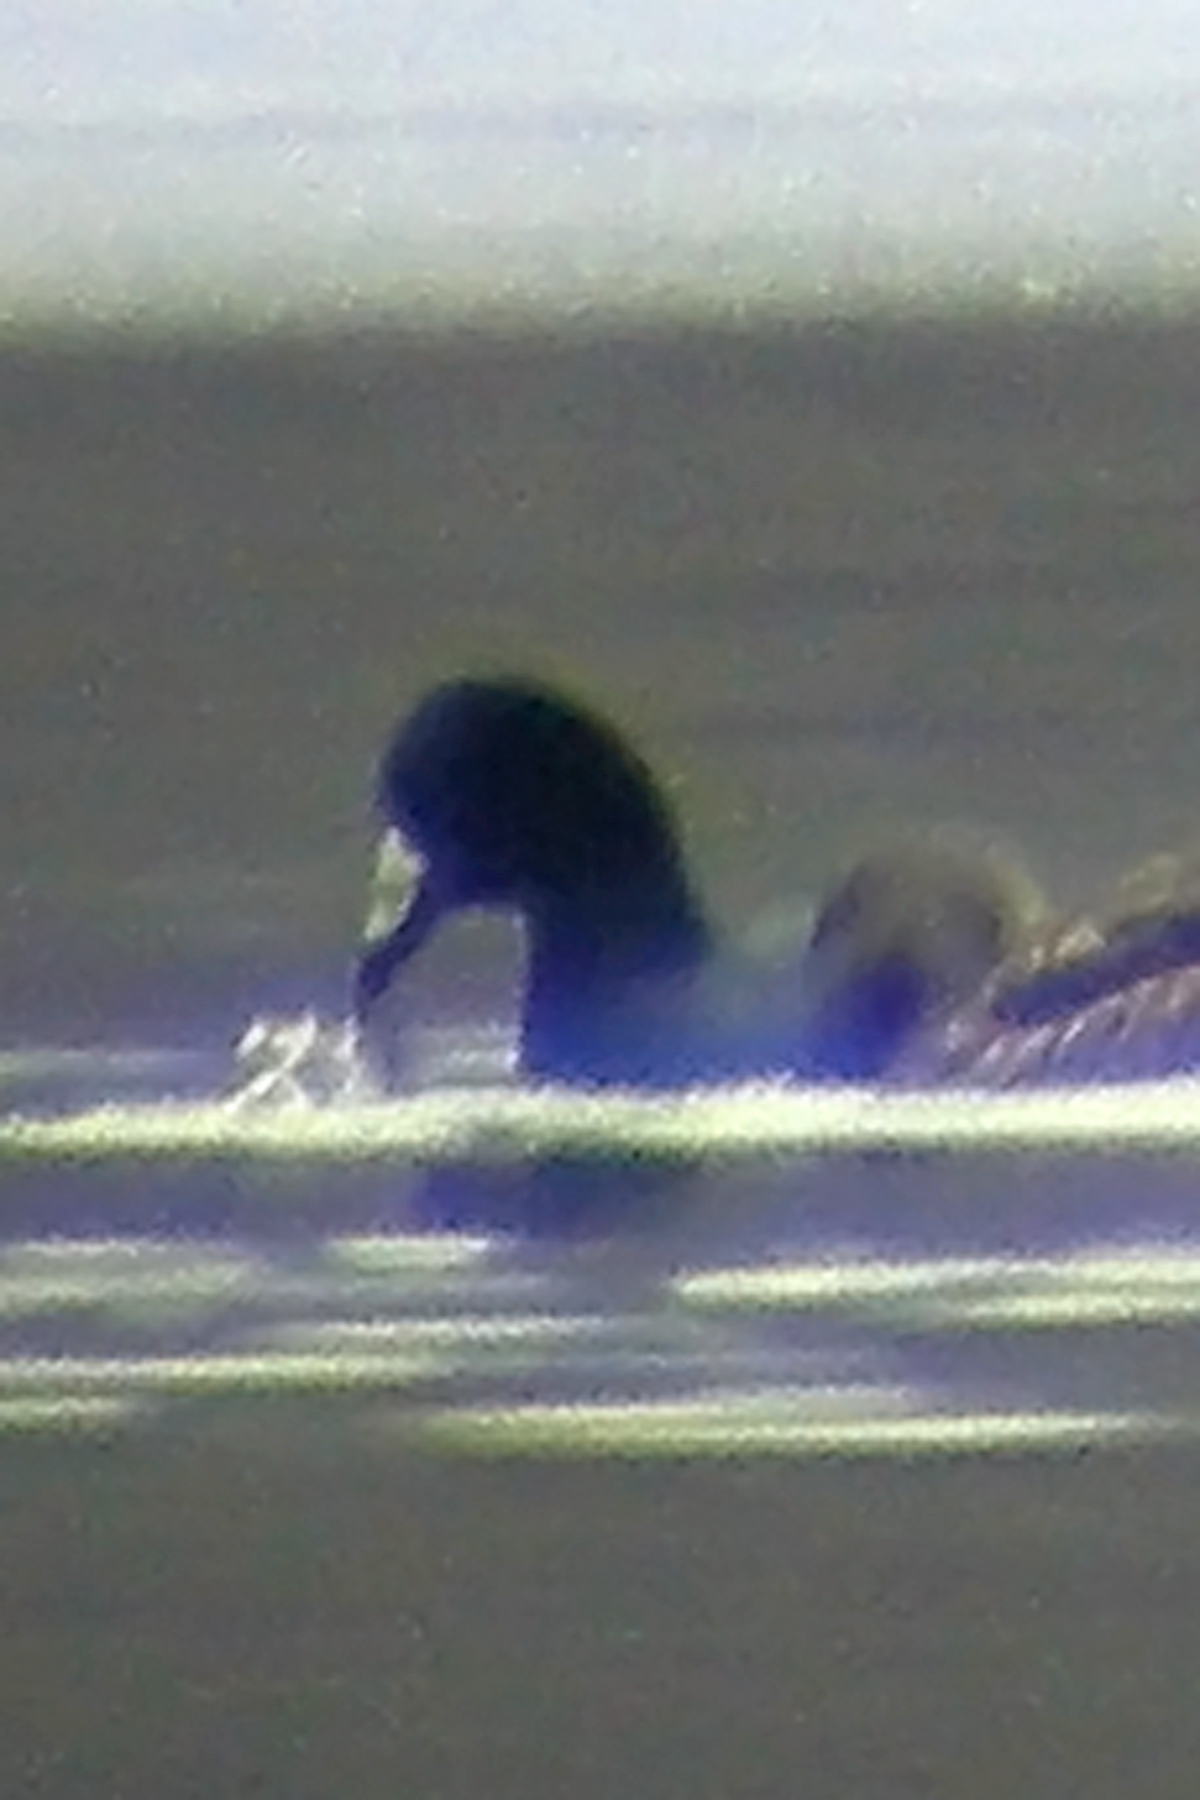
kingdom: Animalia
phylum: Chordata
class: Aves
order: Gruiformes
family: Rallidae
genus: Fulica
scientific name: Fulica americana
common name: American coot
